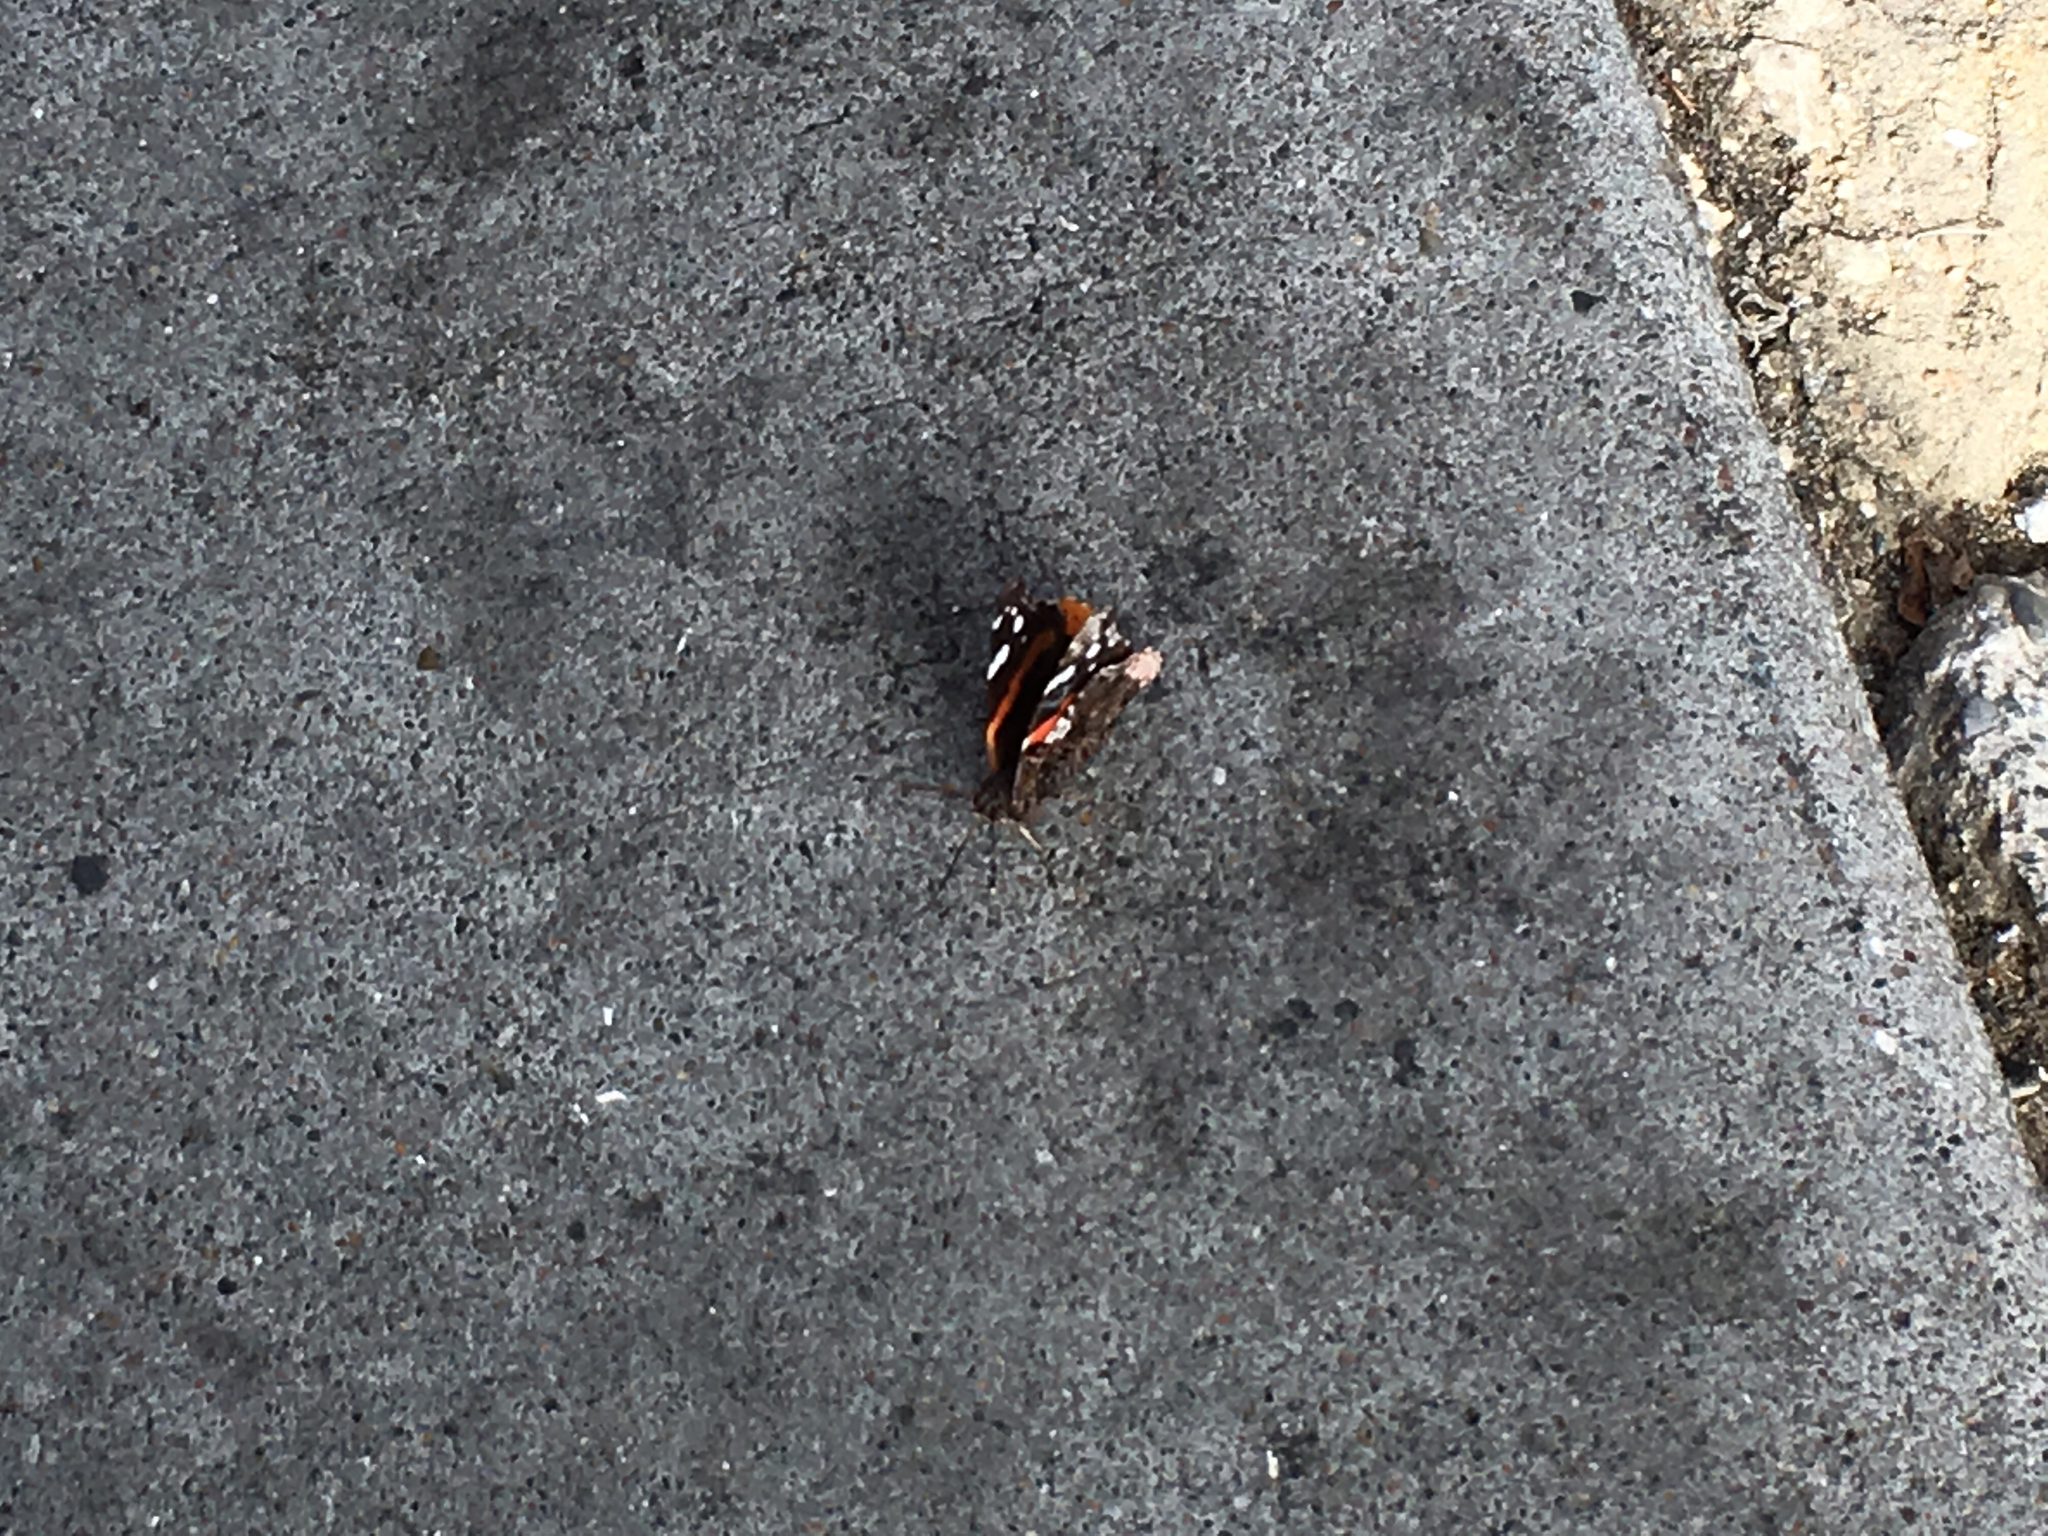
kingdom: Animalia
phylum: Arthropoda
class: Insecta
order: Lepidoptera
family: Nymphalidae
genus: Vanessa
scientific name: Vanessa atalanta
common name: Red admiral
